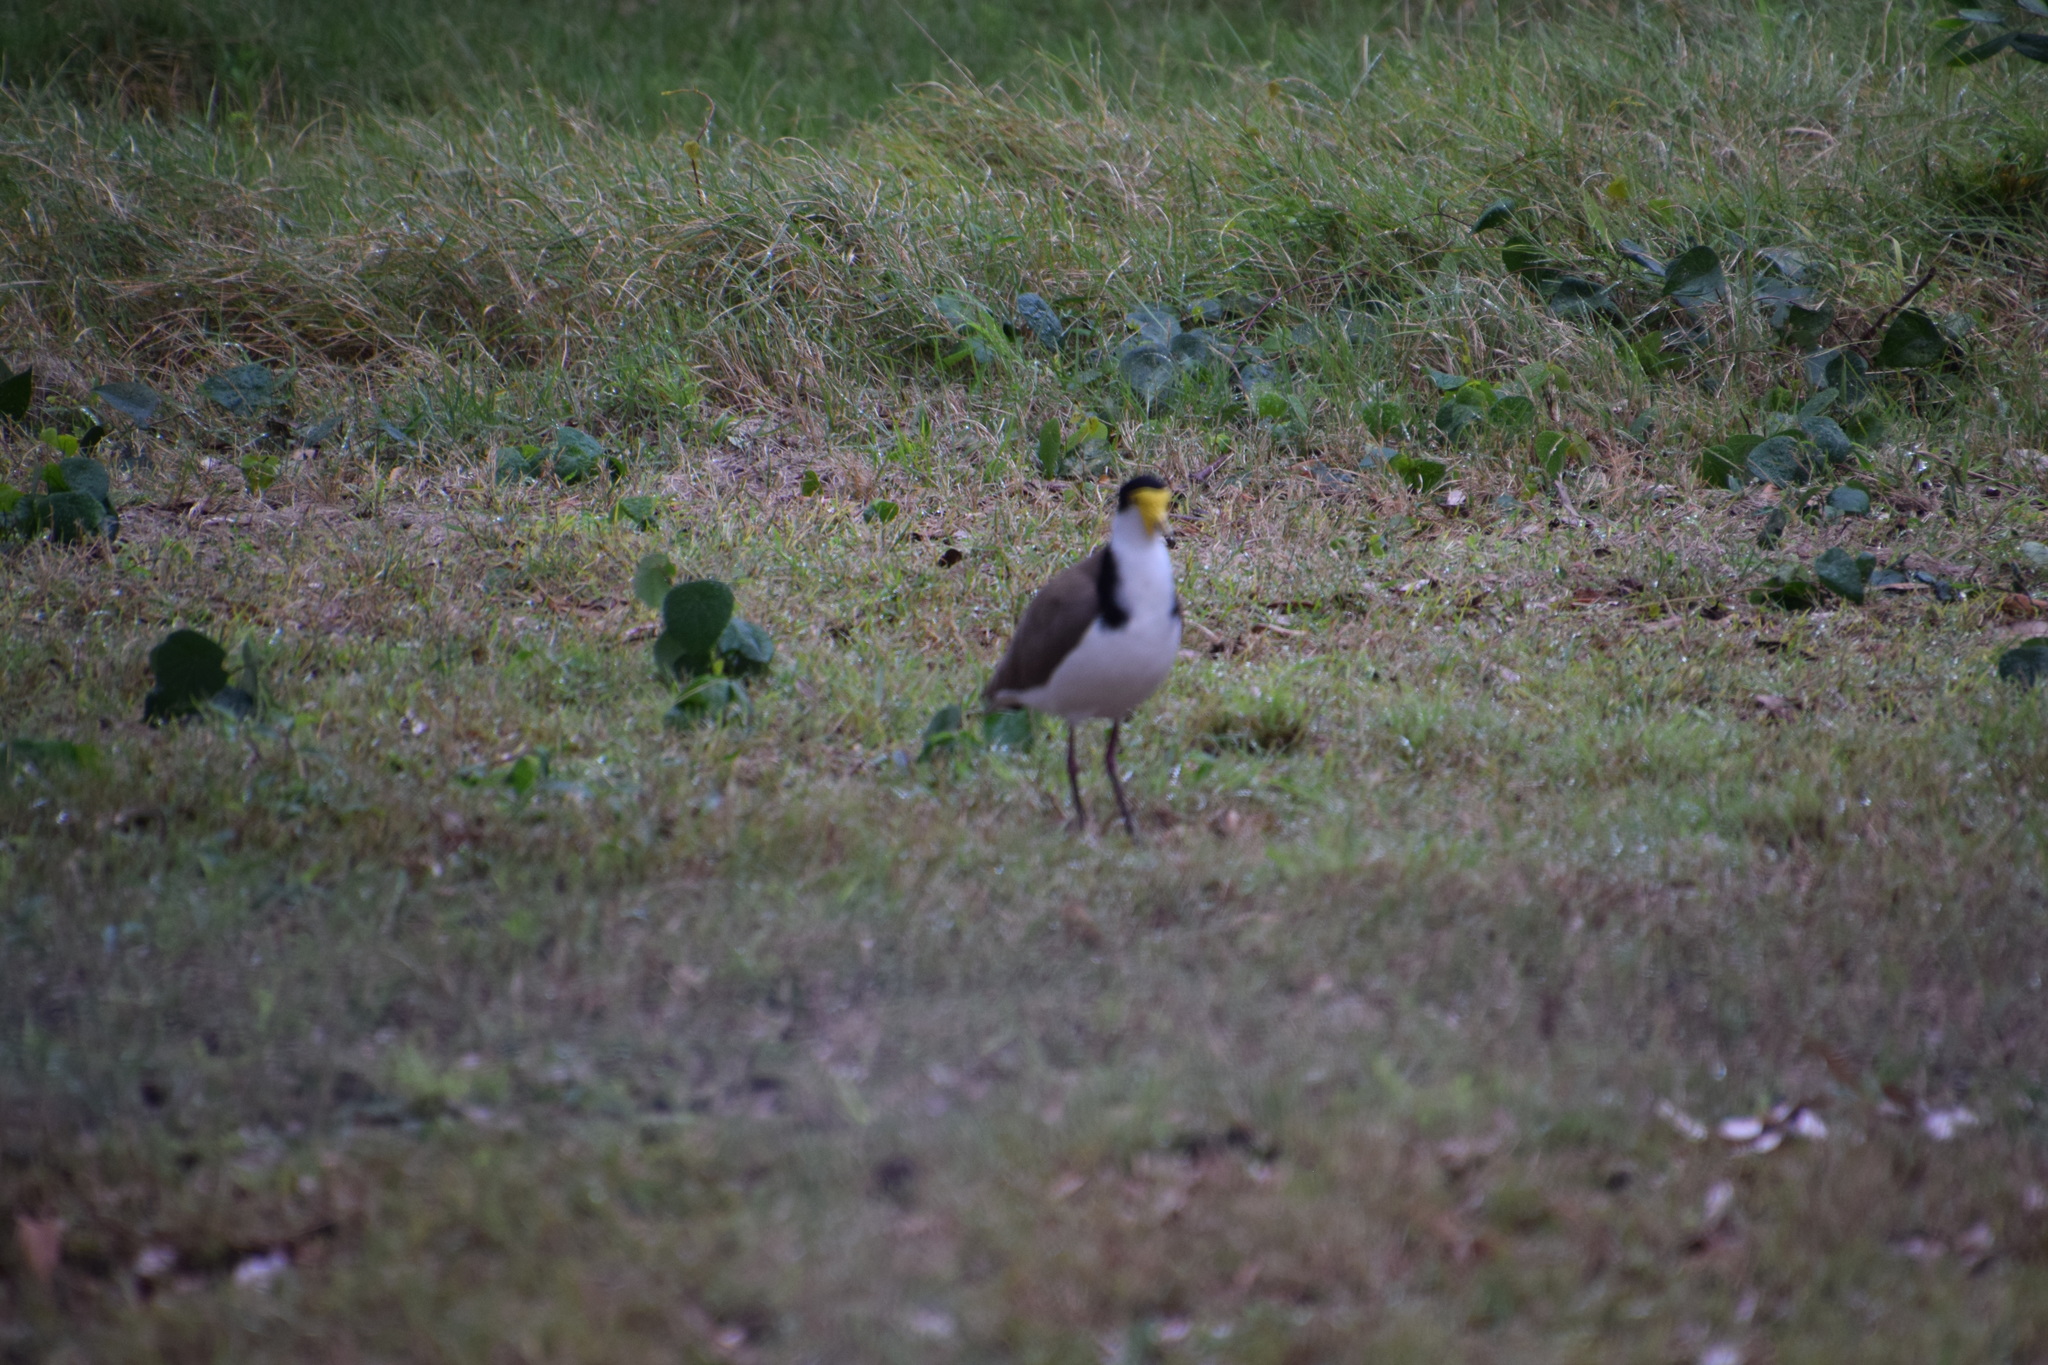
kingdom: Animalia
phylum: Chordata
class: Aves
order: Charadriiformes
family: Charadriidae
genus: Vanellus
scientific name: Vanellus miles
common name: Masked lapwing
